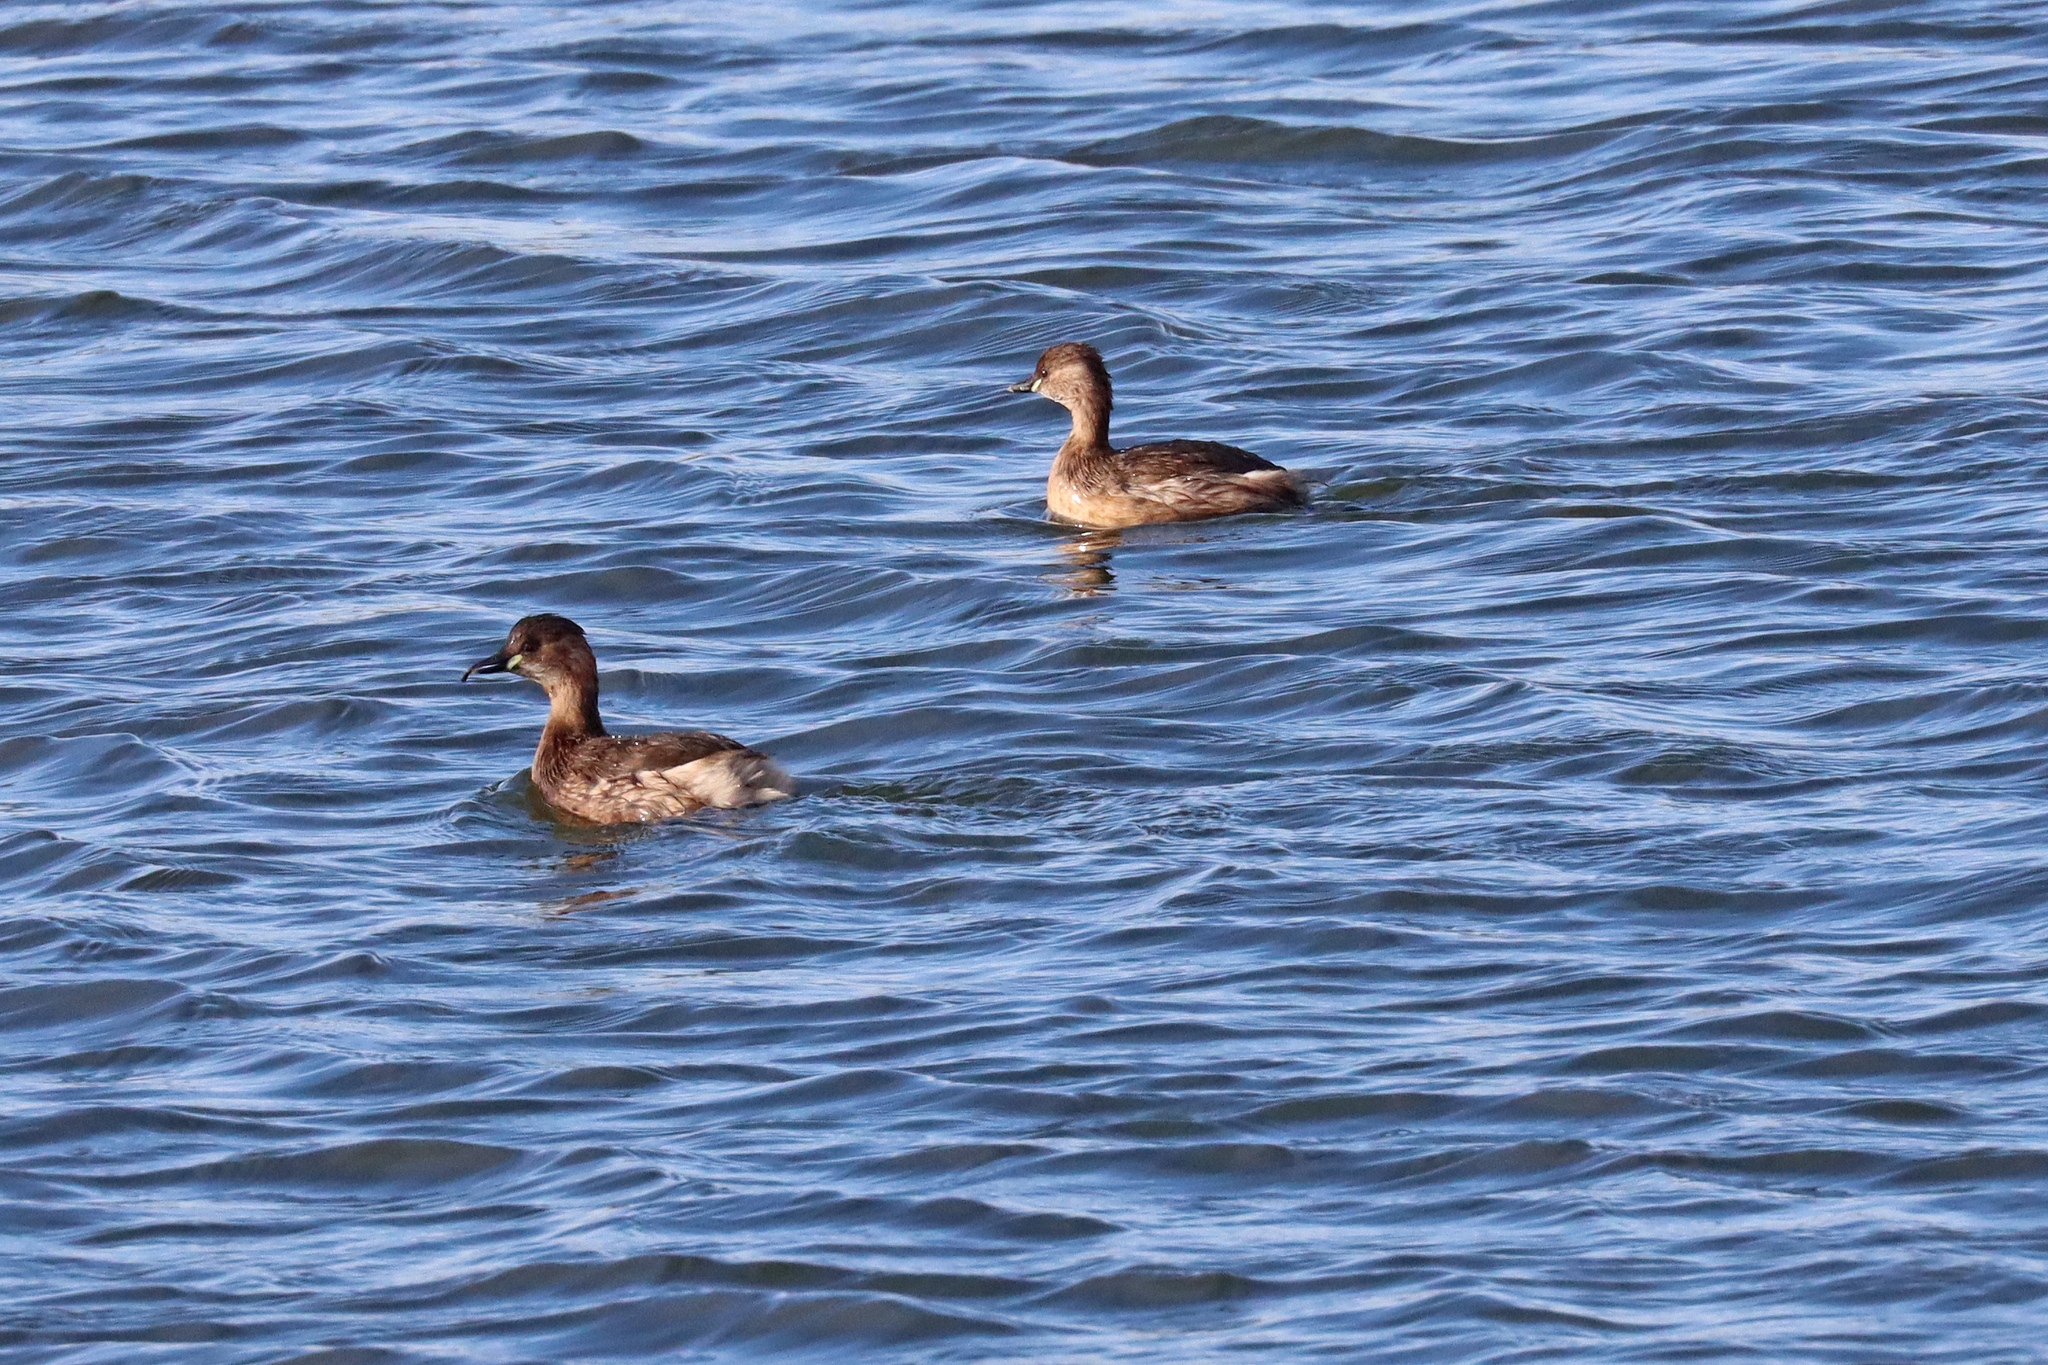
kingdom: Animalia
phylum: Chordata
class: Aves
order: Podicipediformes
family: Podicipedidae
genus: Tachybaptus
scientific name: Tachybaptus ruficollis
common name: Little grebe
